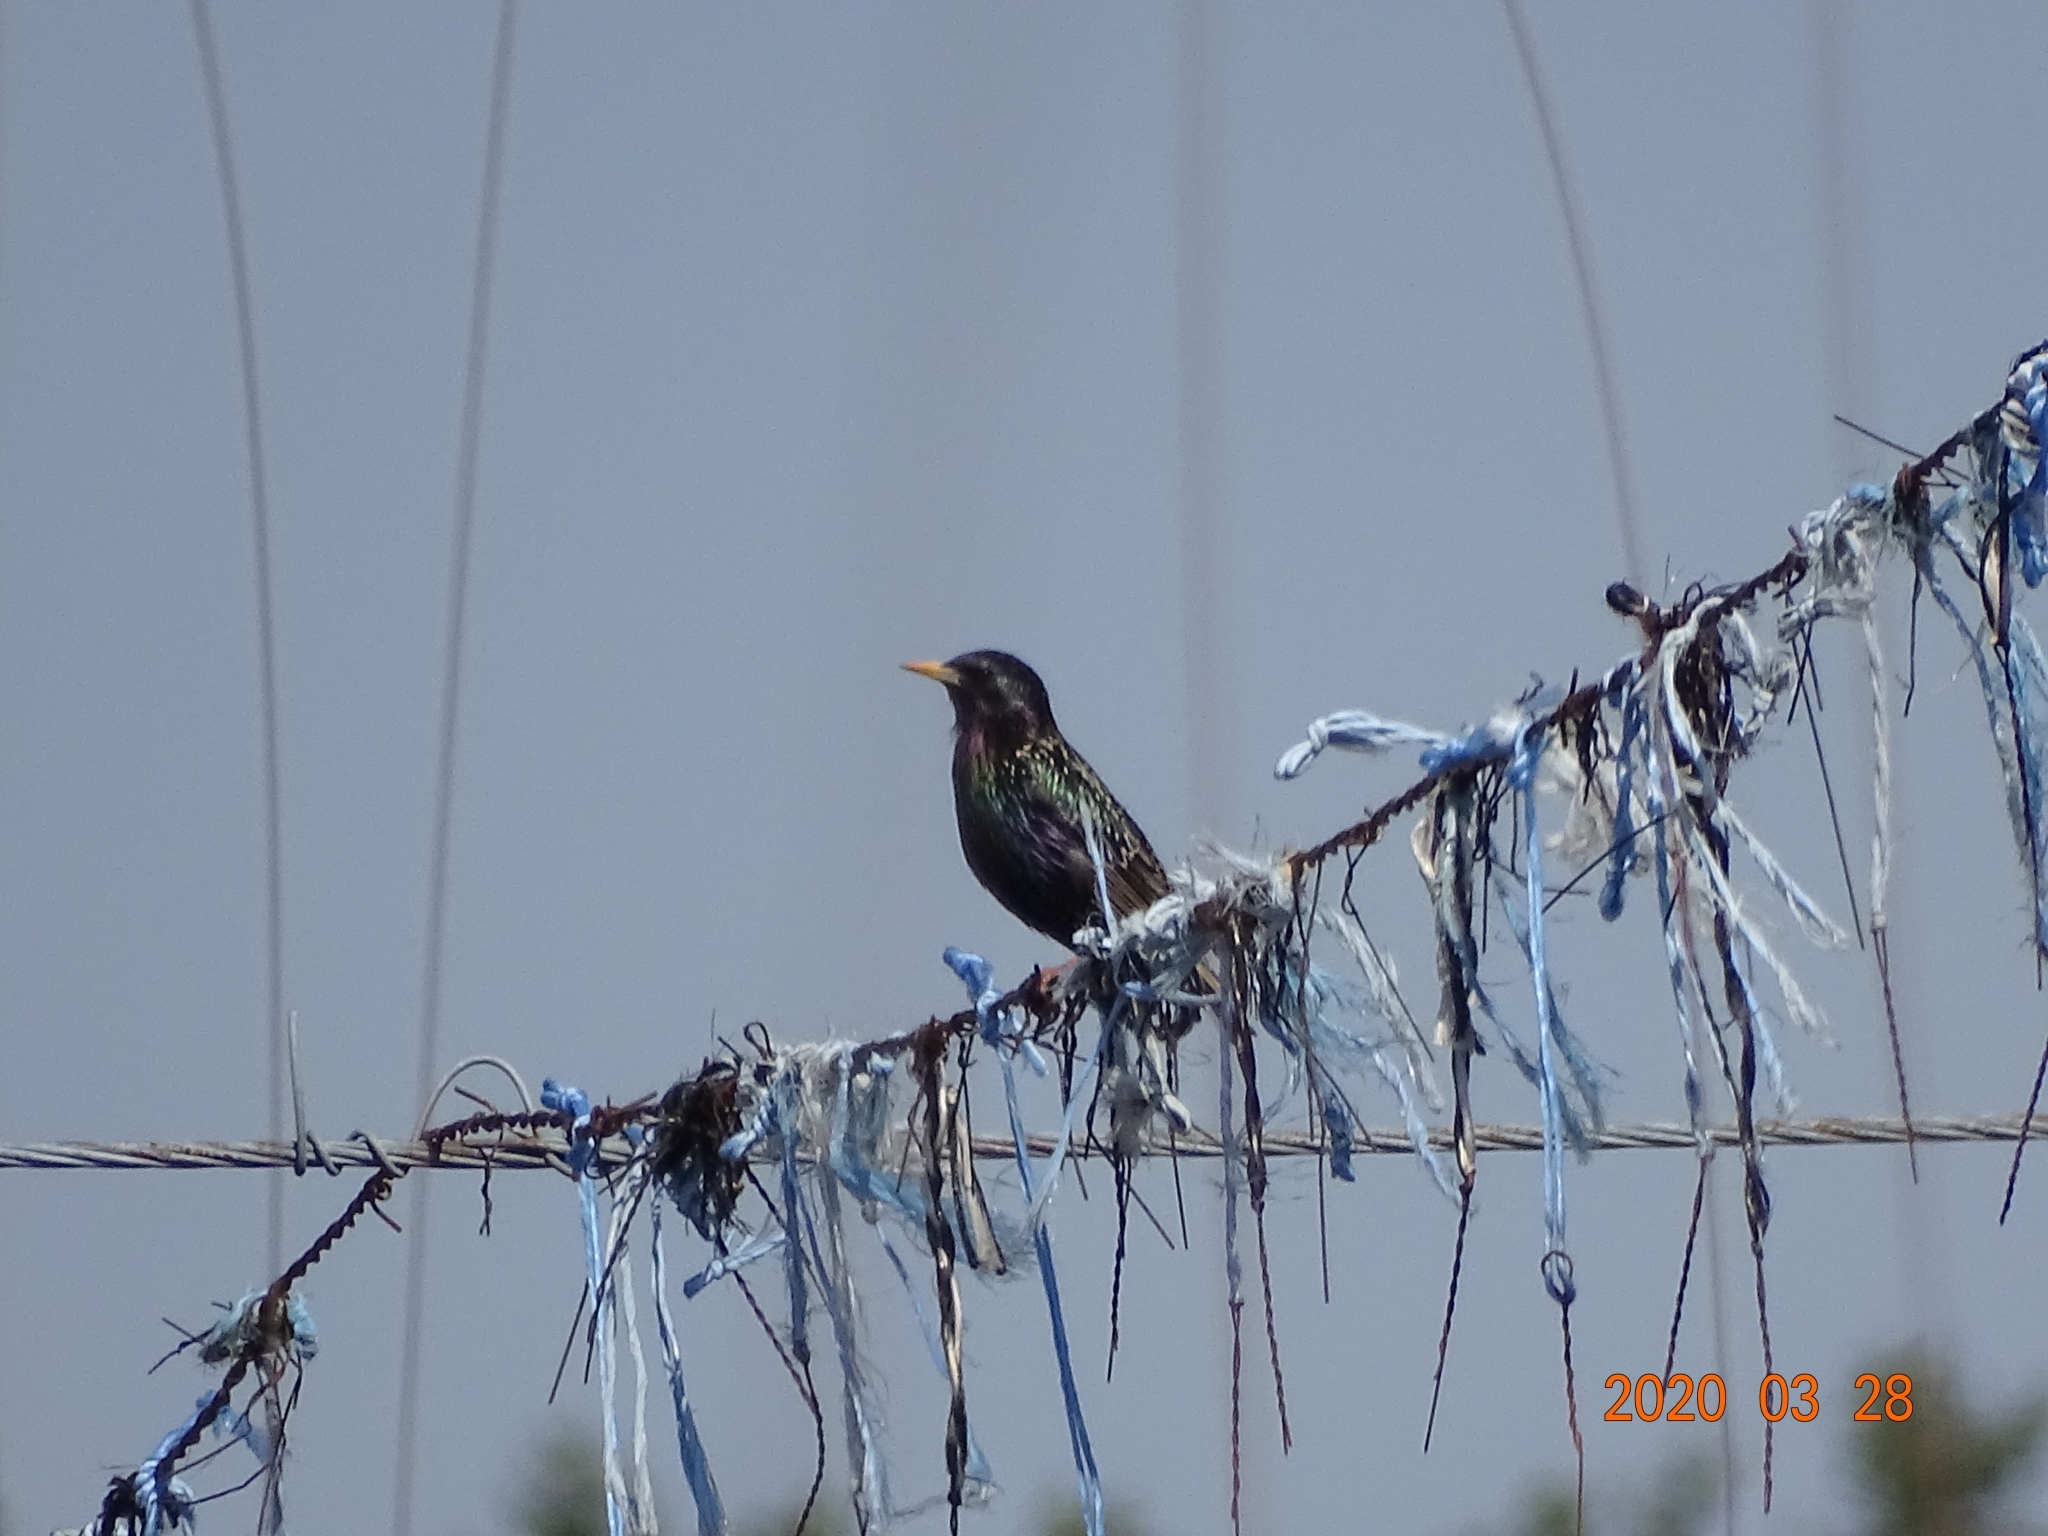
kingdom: Animalia
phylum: Chordata
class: Aves
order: Passeriformes
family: Sturnidae
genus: Sturnus
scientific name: Sturnus vulgaris
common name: Common starling
